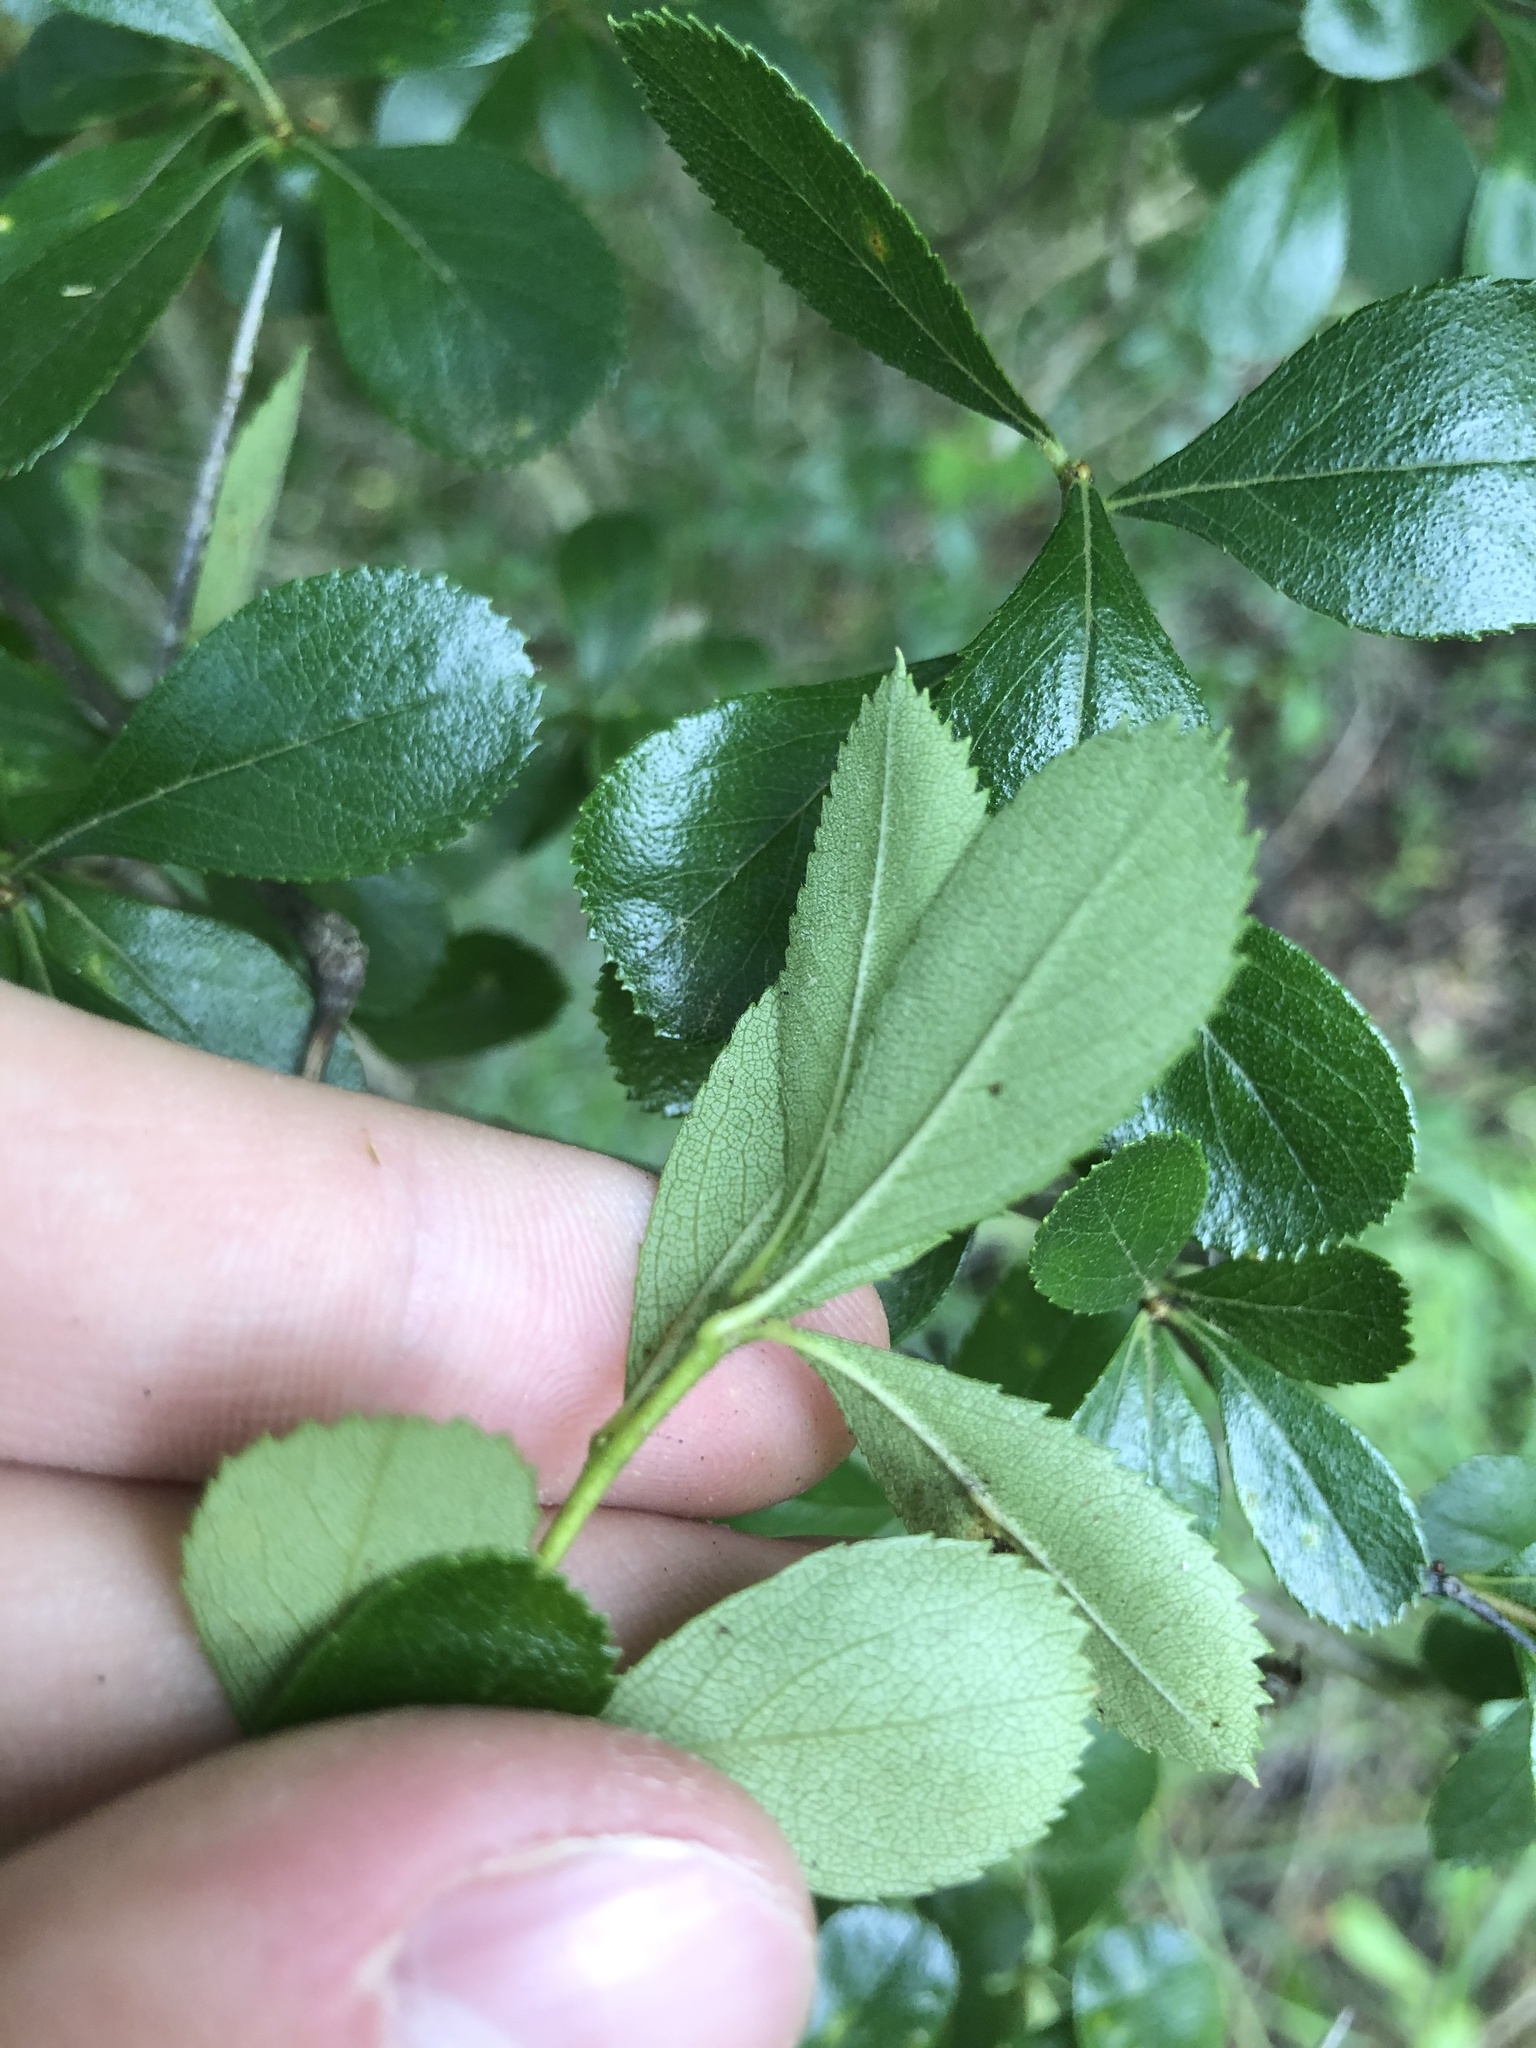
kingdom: Plantae
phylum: Tracheophyta
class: Magnoliopsida
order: Rosales
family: Rosaceae
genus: Crataegus
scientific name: Crataegus berberifolia
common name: Barberry hawthorn
